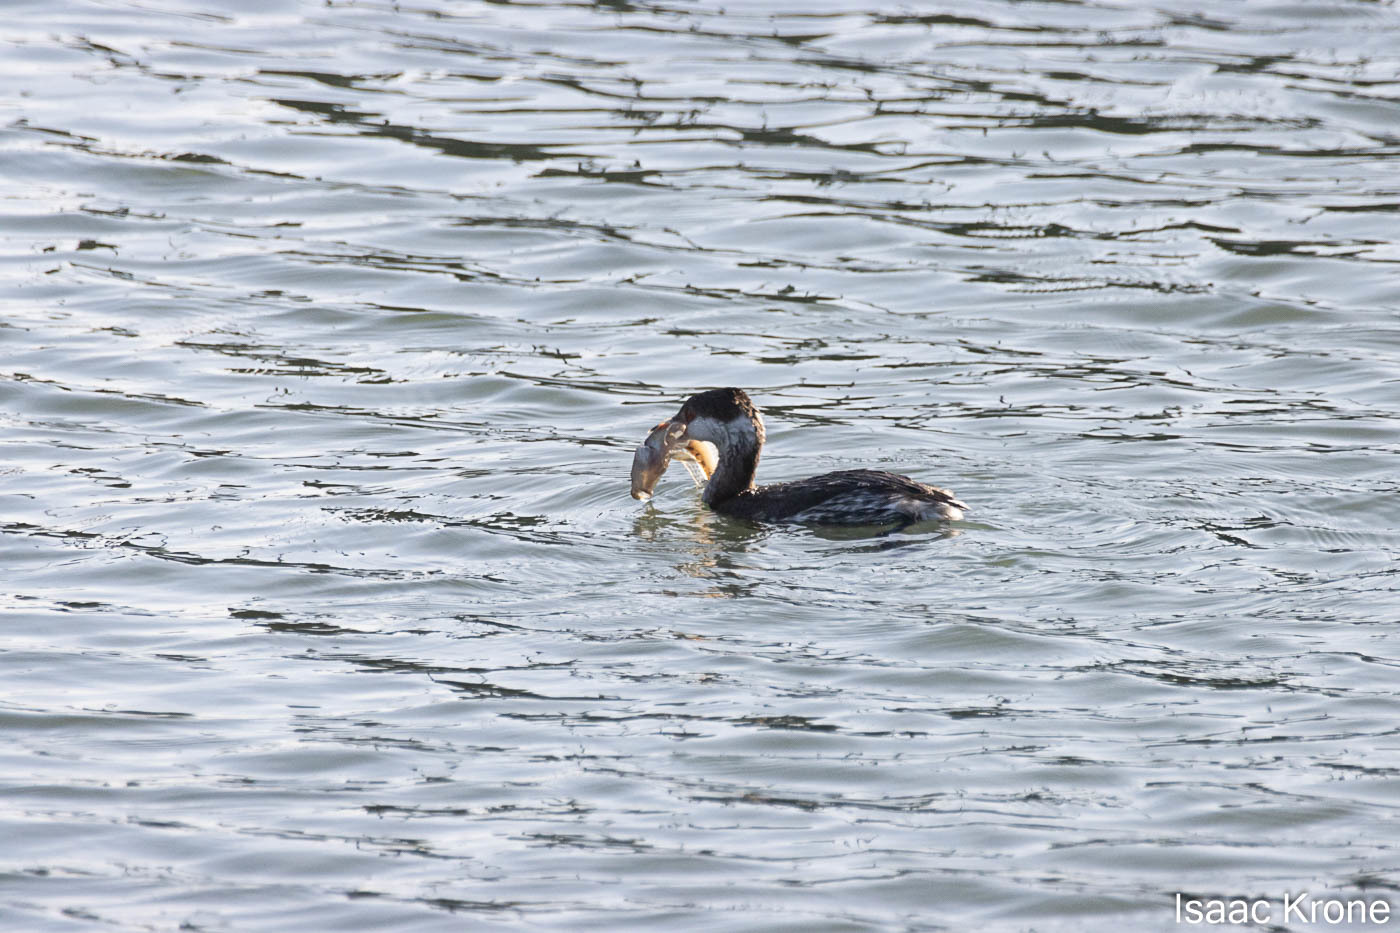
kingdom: Animalia
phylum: Chordata
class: Aves
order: Podicipediformes
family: Podicipedidae
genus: Podiceps
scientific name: Podiceps auritus
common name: Horned grebe
